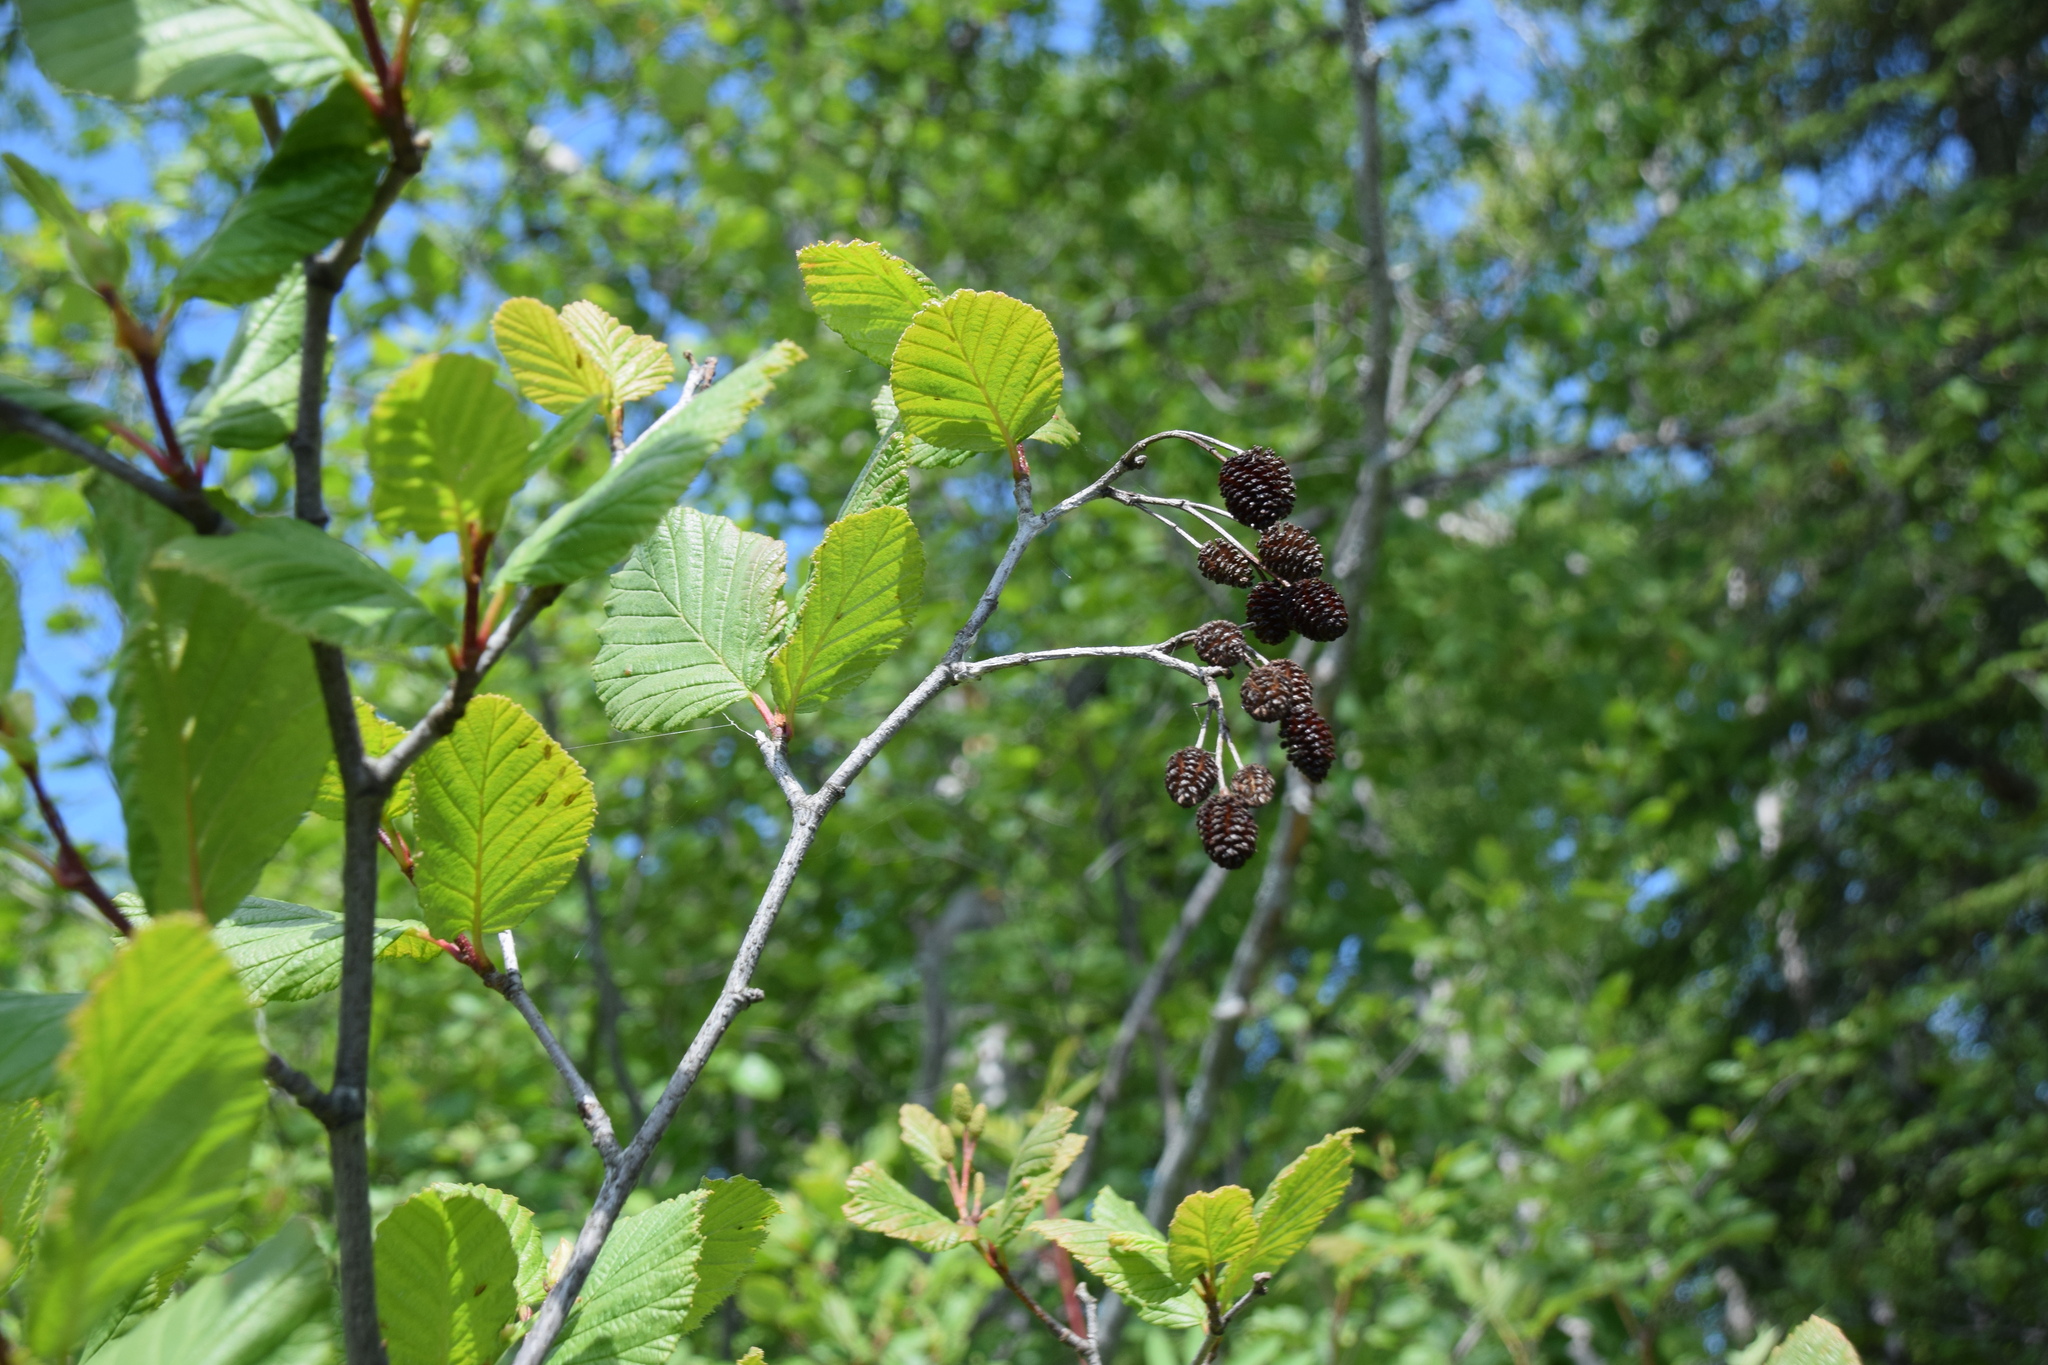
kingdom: Plantae
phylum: Tracheophyta
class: Magnoliopsida
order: Fagales
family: Betulaceae
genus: Alnus
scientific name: Alnus alnobetula
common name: Green alder
